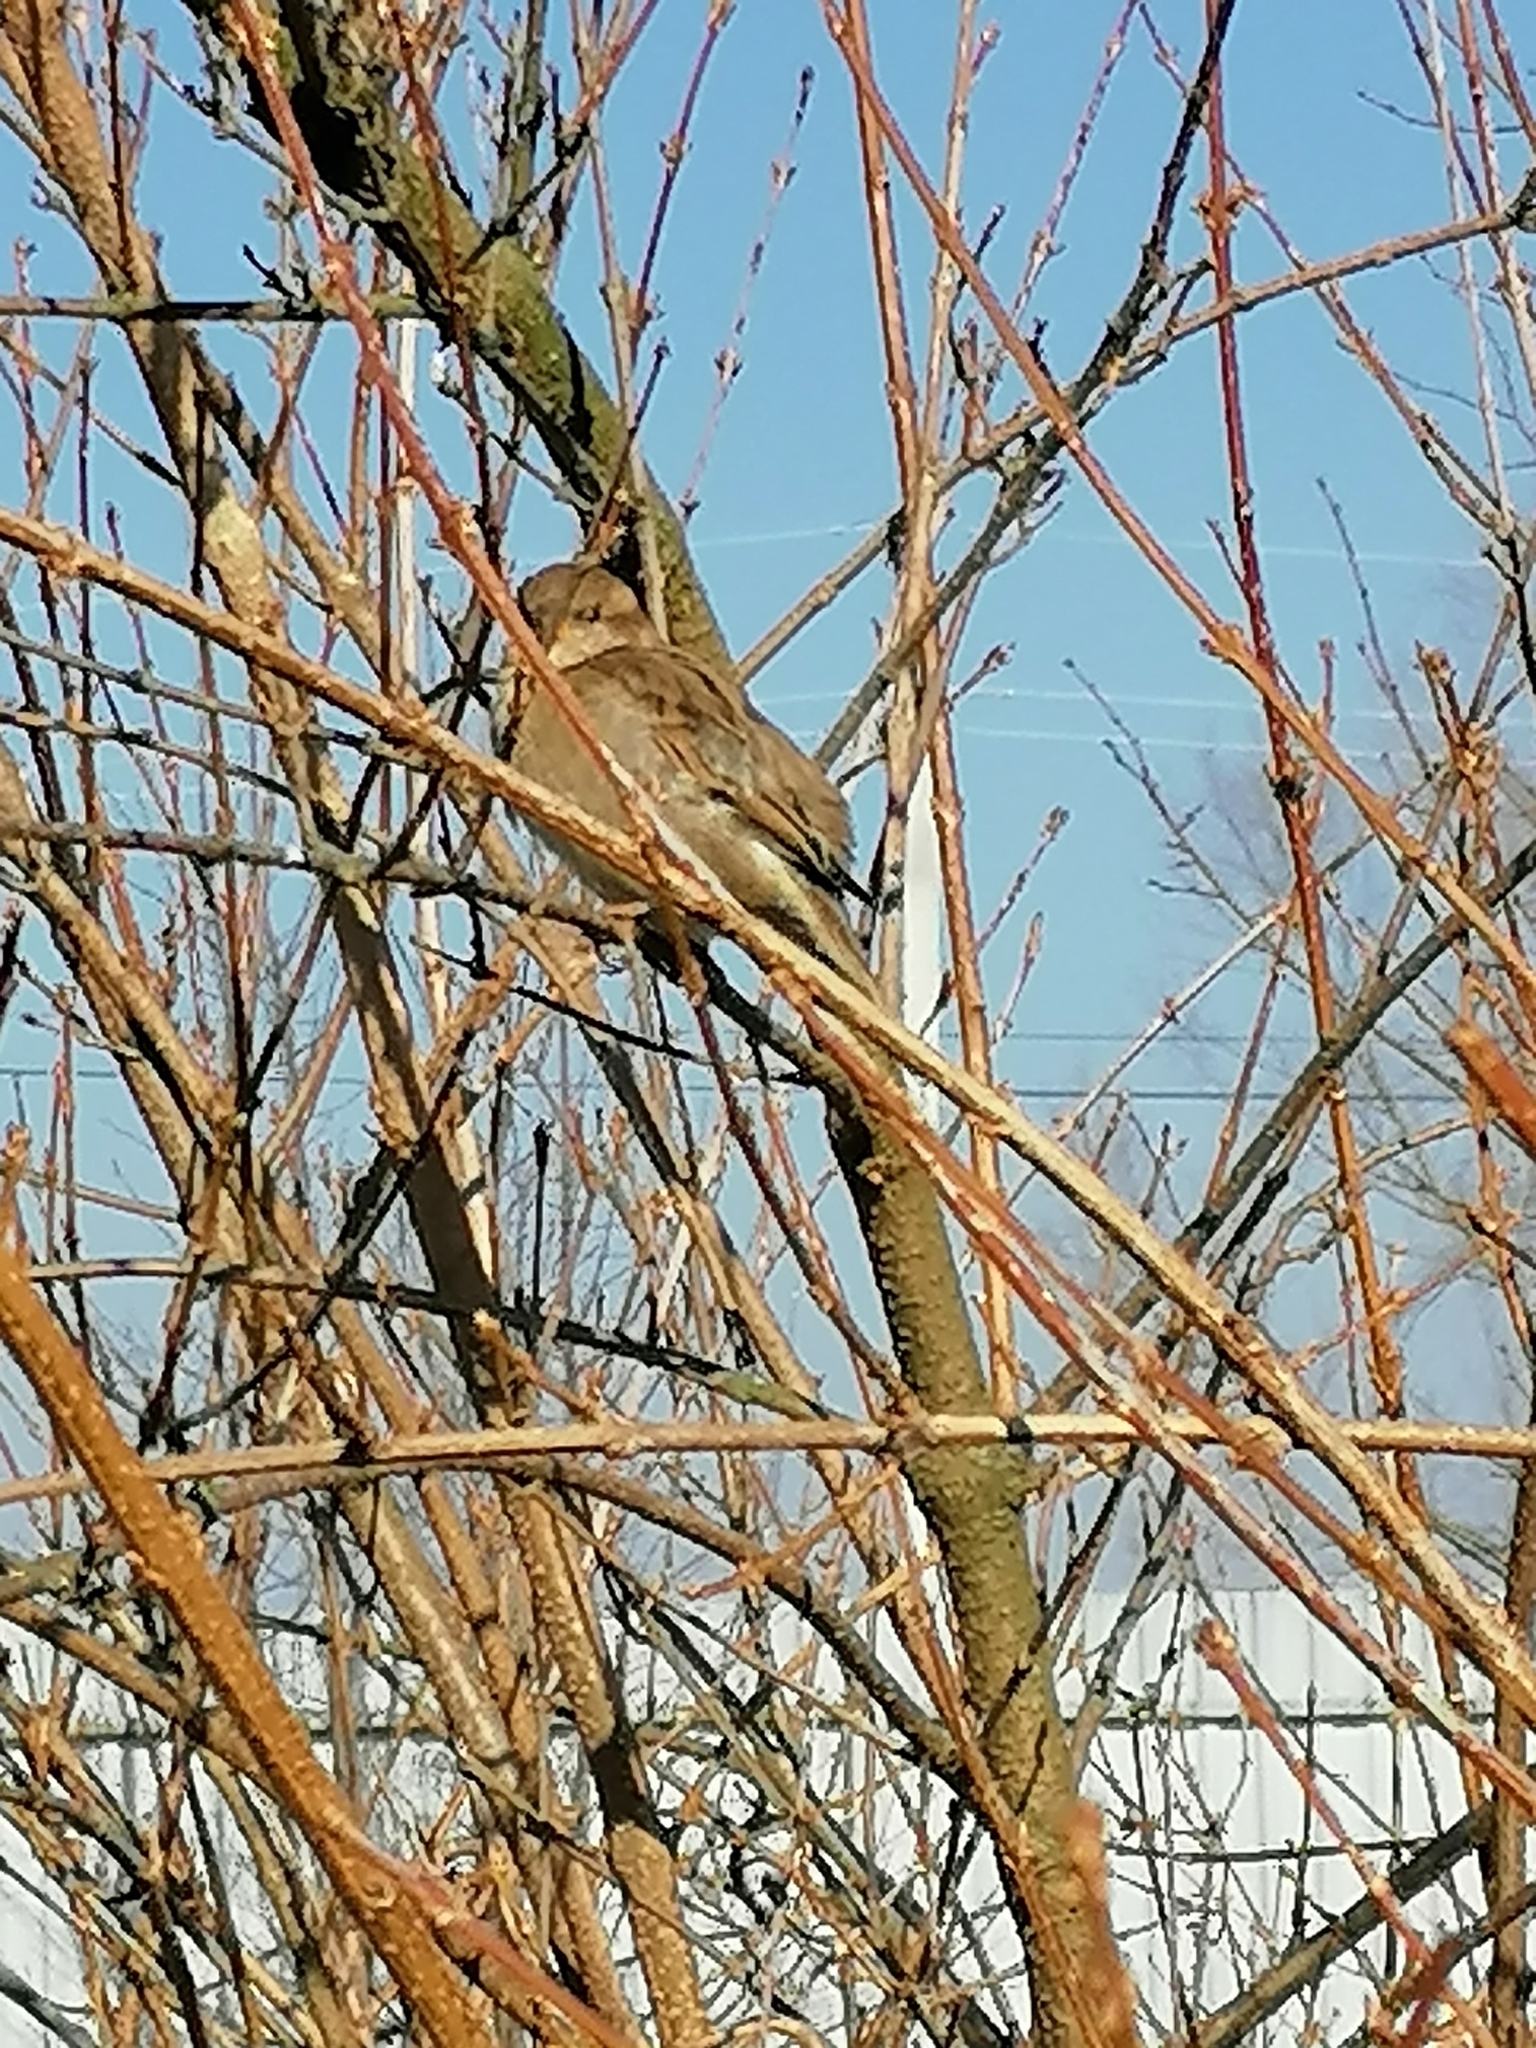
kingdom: Animalia
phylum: Chordata
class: Aves
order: Passeriformes
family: Passeridae
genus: Passer
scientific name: Passer domesticus
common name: House sparrow
